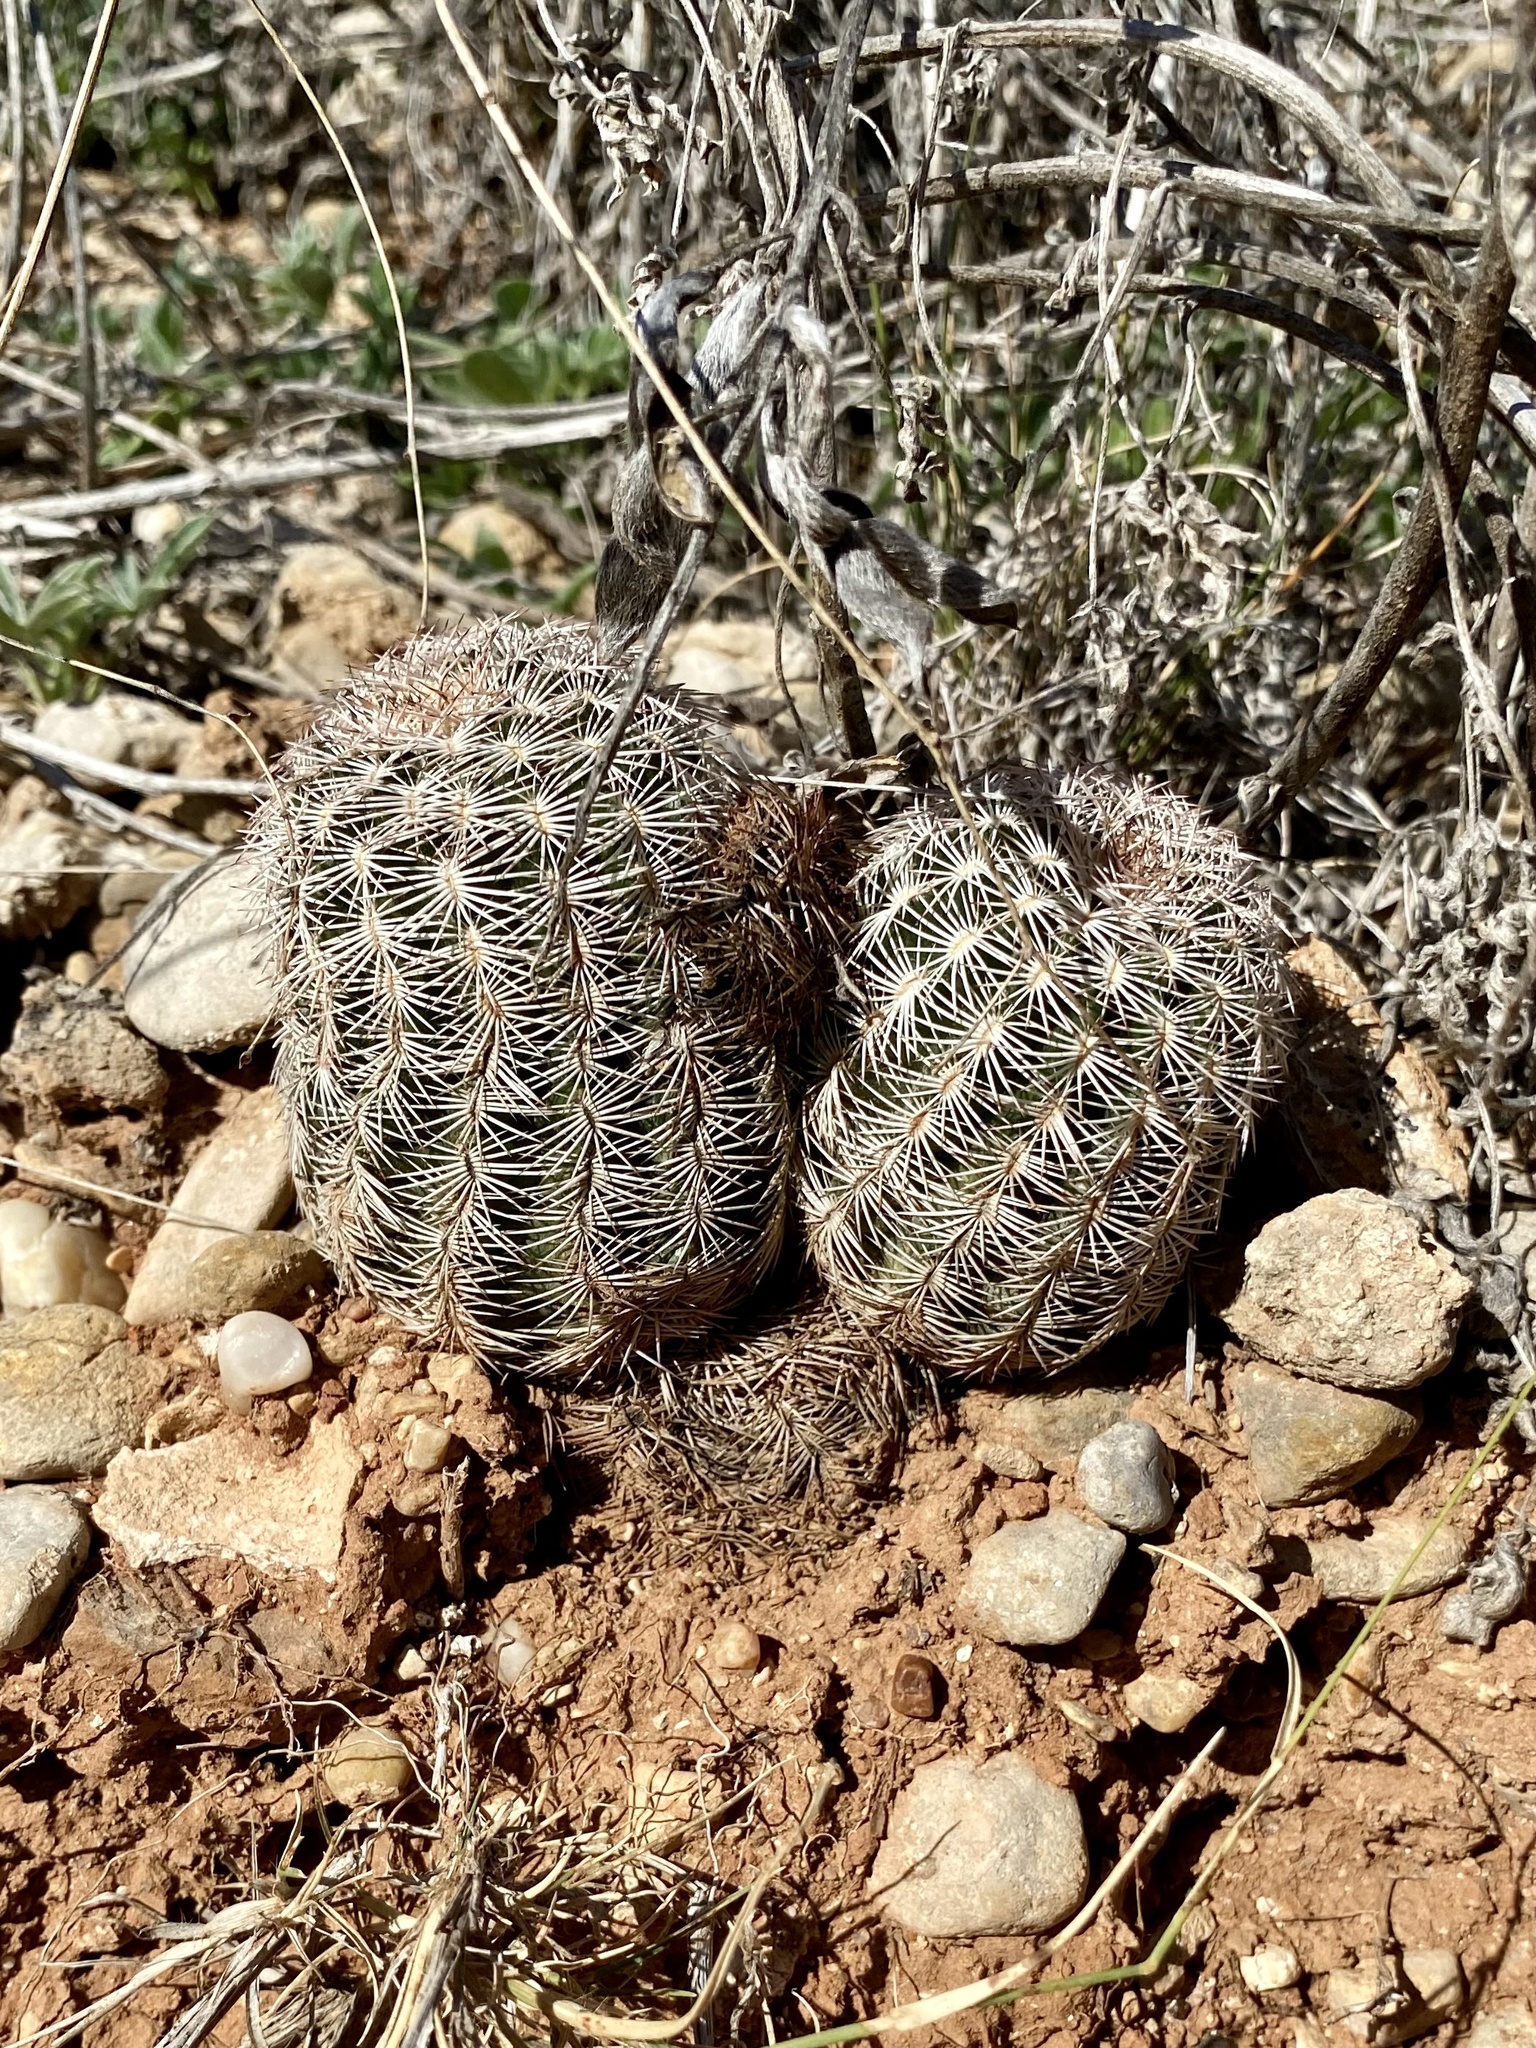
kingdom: Plantae
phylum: Tracheophyta
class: Magnoliopsida
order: Caryophyllales
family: Cactaceae
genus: Echinocereus
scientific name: Echinocereus reichenbachii
